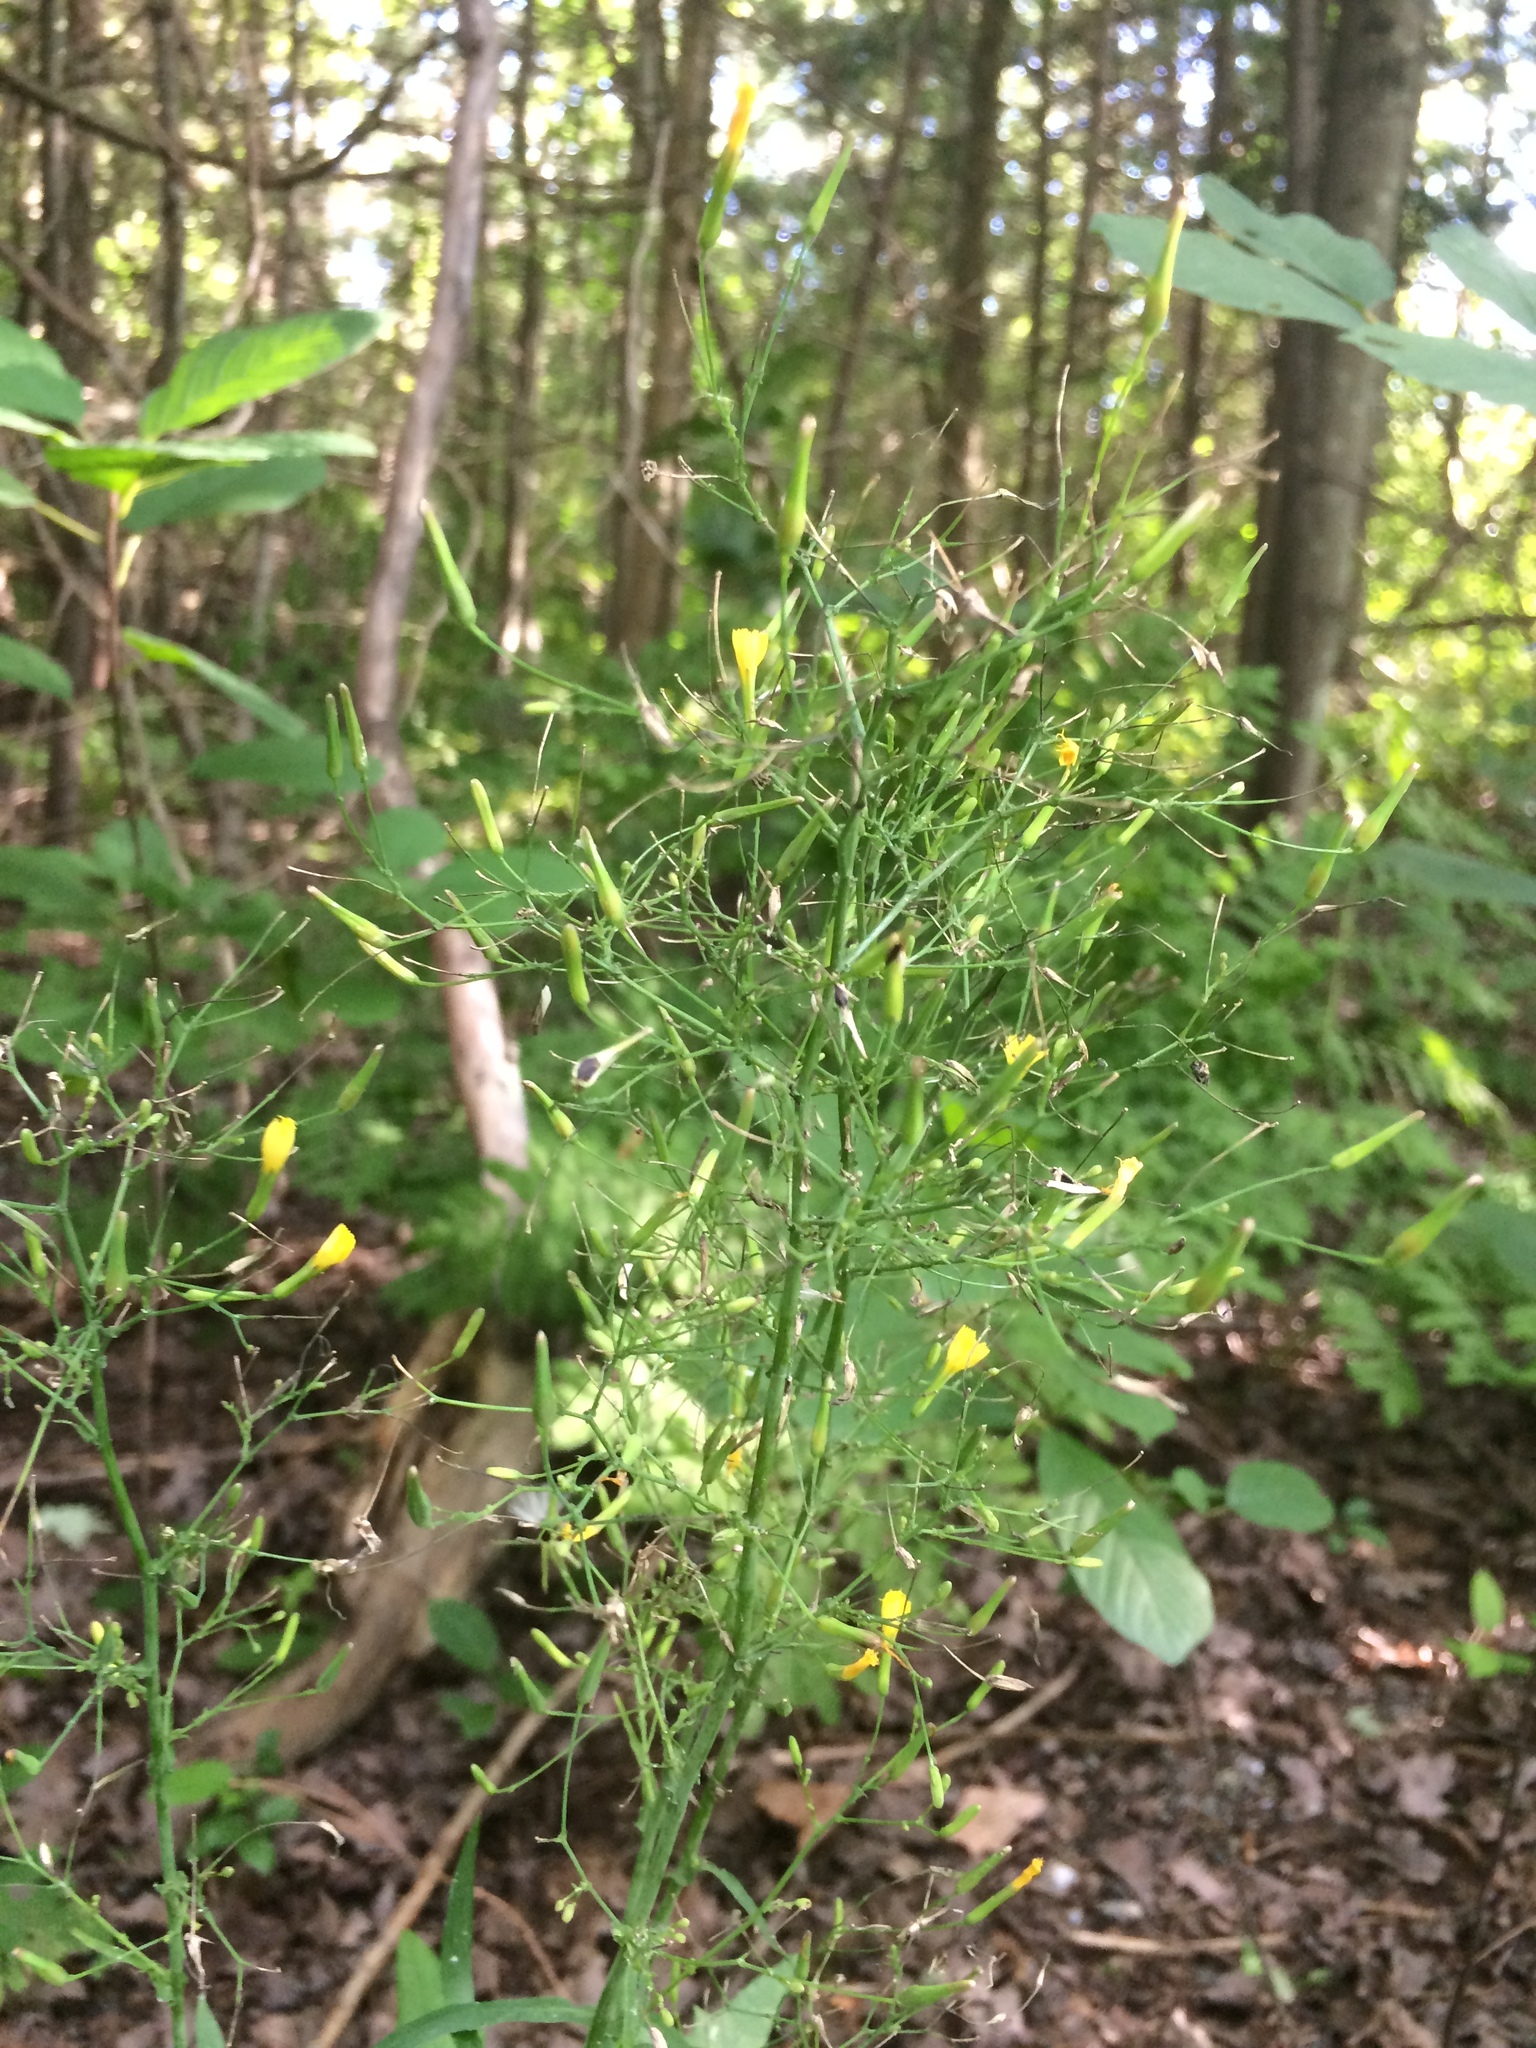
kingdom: Plantae
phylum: Tracheophyta
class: Magnoliopsida
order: Asterales
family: Asteraceae
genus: Mycelis
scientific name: Mycelis muralis
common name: Wall lettuce
